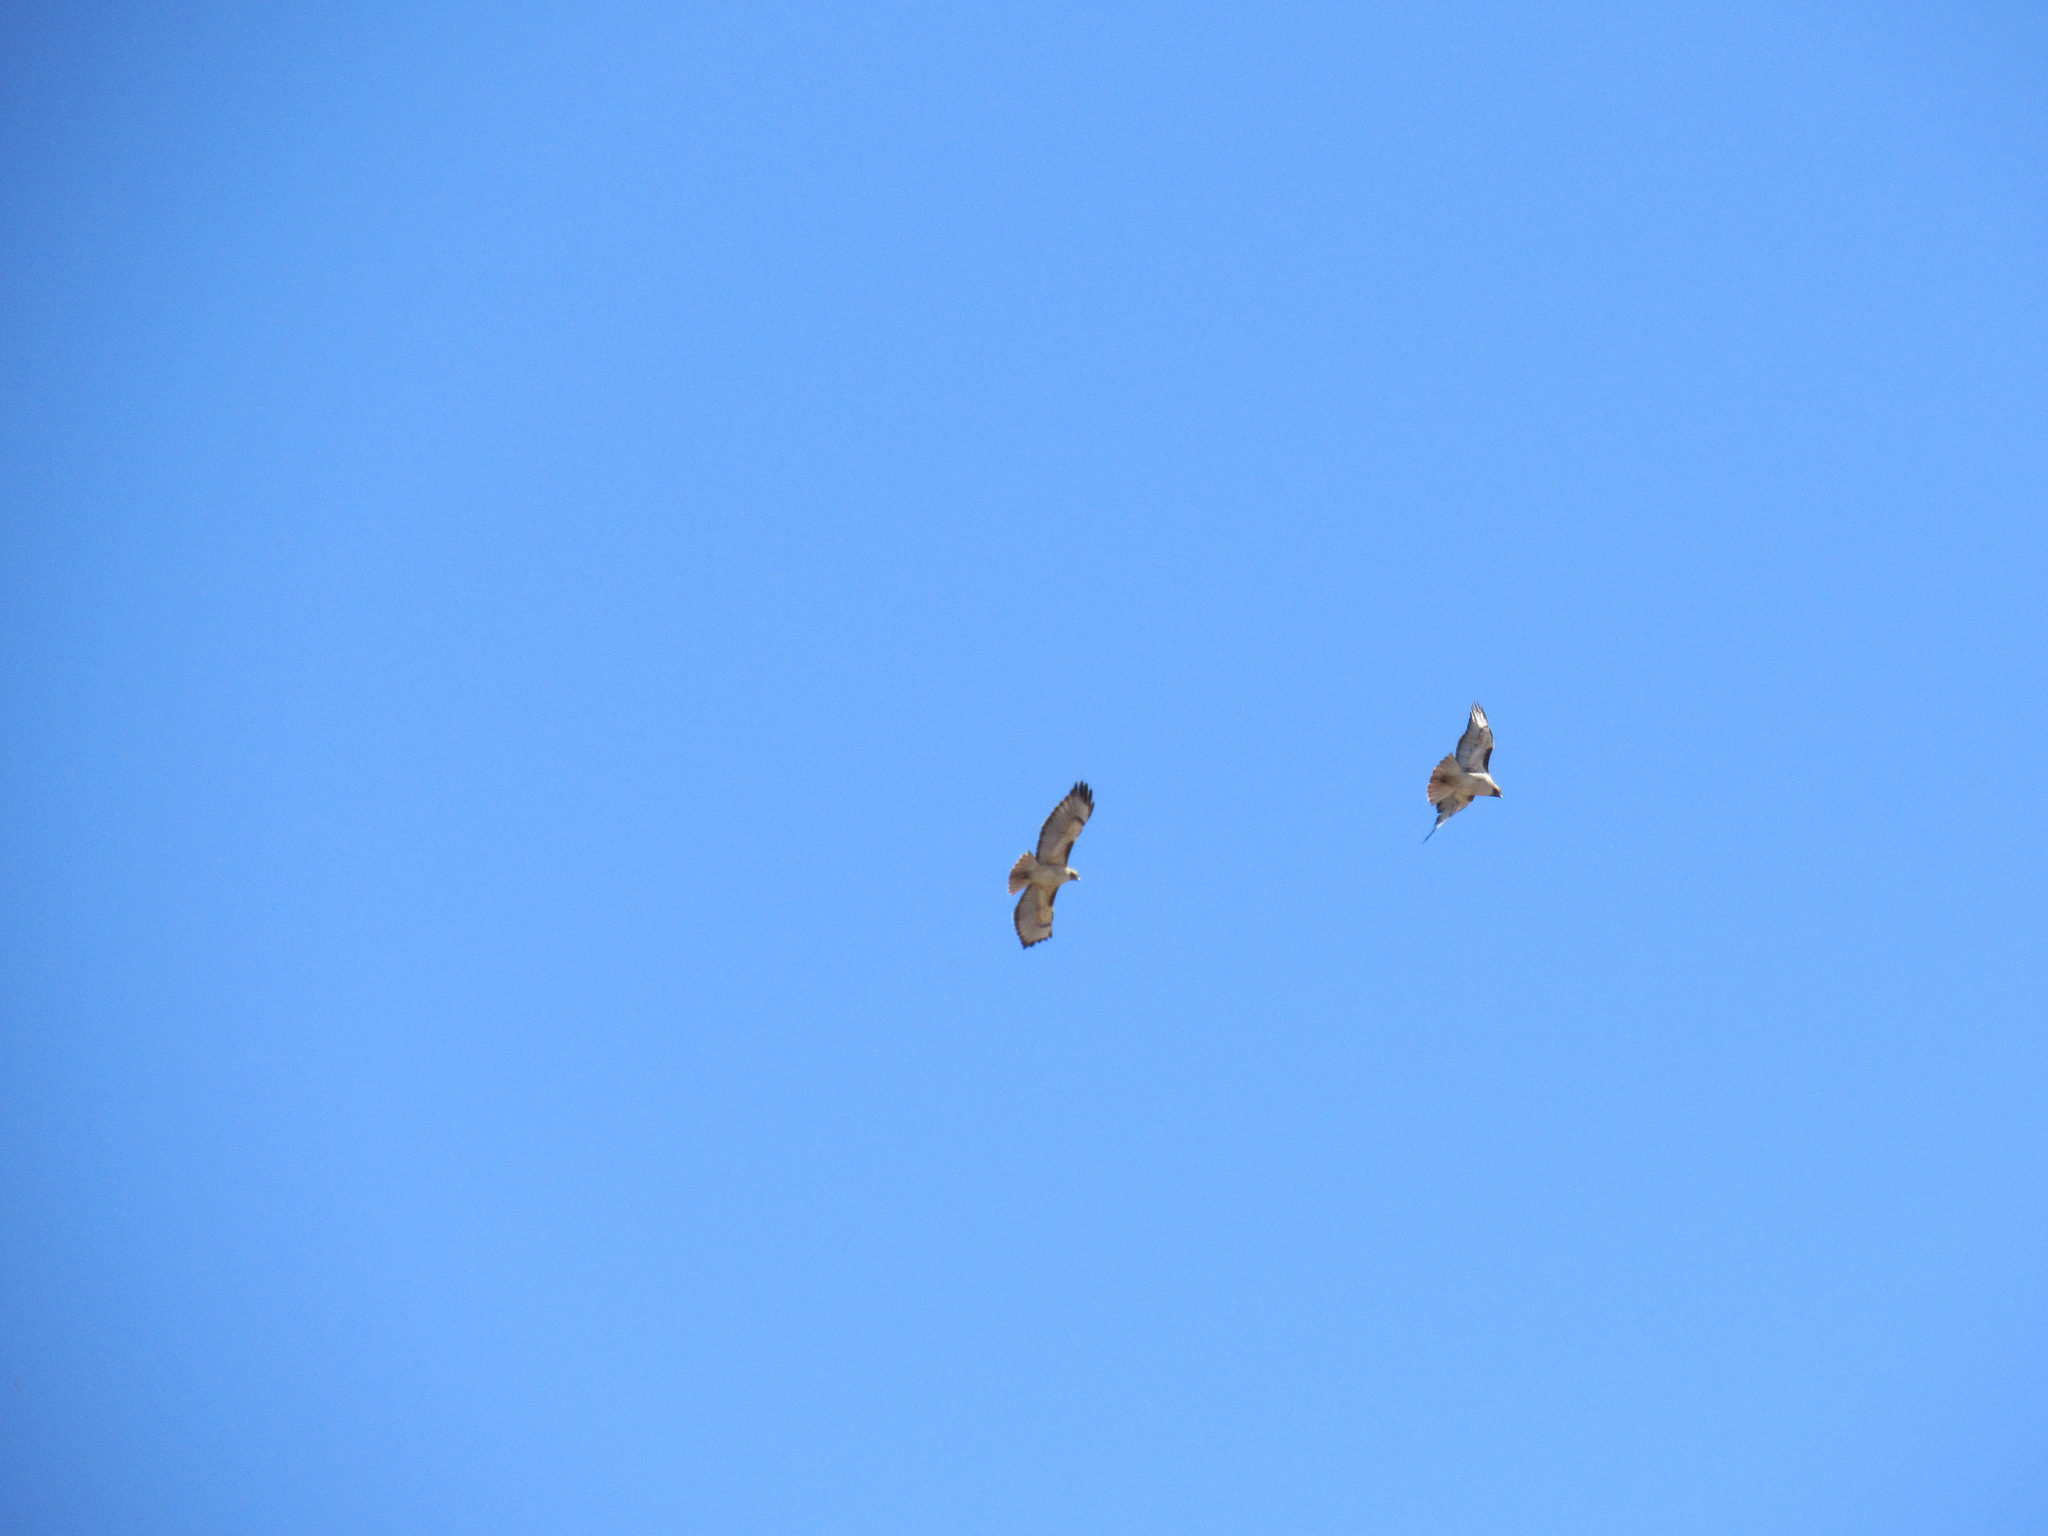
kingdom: Animalia
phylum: Chordata
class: Aves
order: Accipitriformes
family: Accipitridae
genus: Buteo
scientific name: Buteo jamaicensis
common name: Red-tailed hawk
